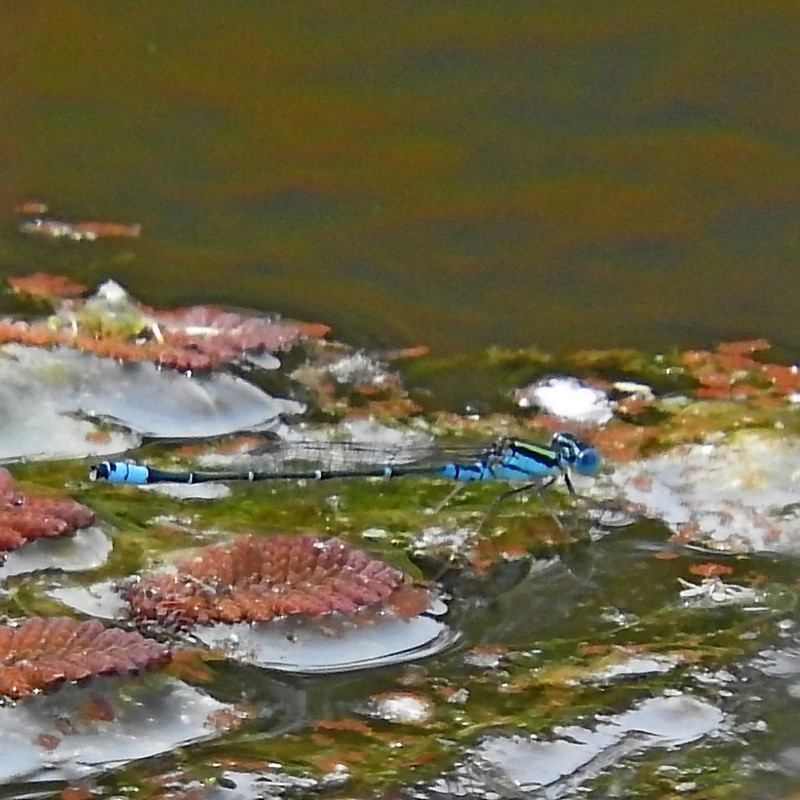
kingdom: Animalia
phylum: Arthropoda
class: Insecta
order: Odonata
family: Coenagrionidae
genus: Austroagrion
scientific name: Austroagrion watsoni
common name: Eastern billabongfly
